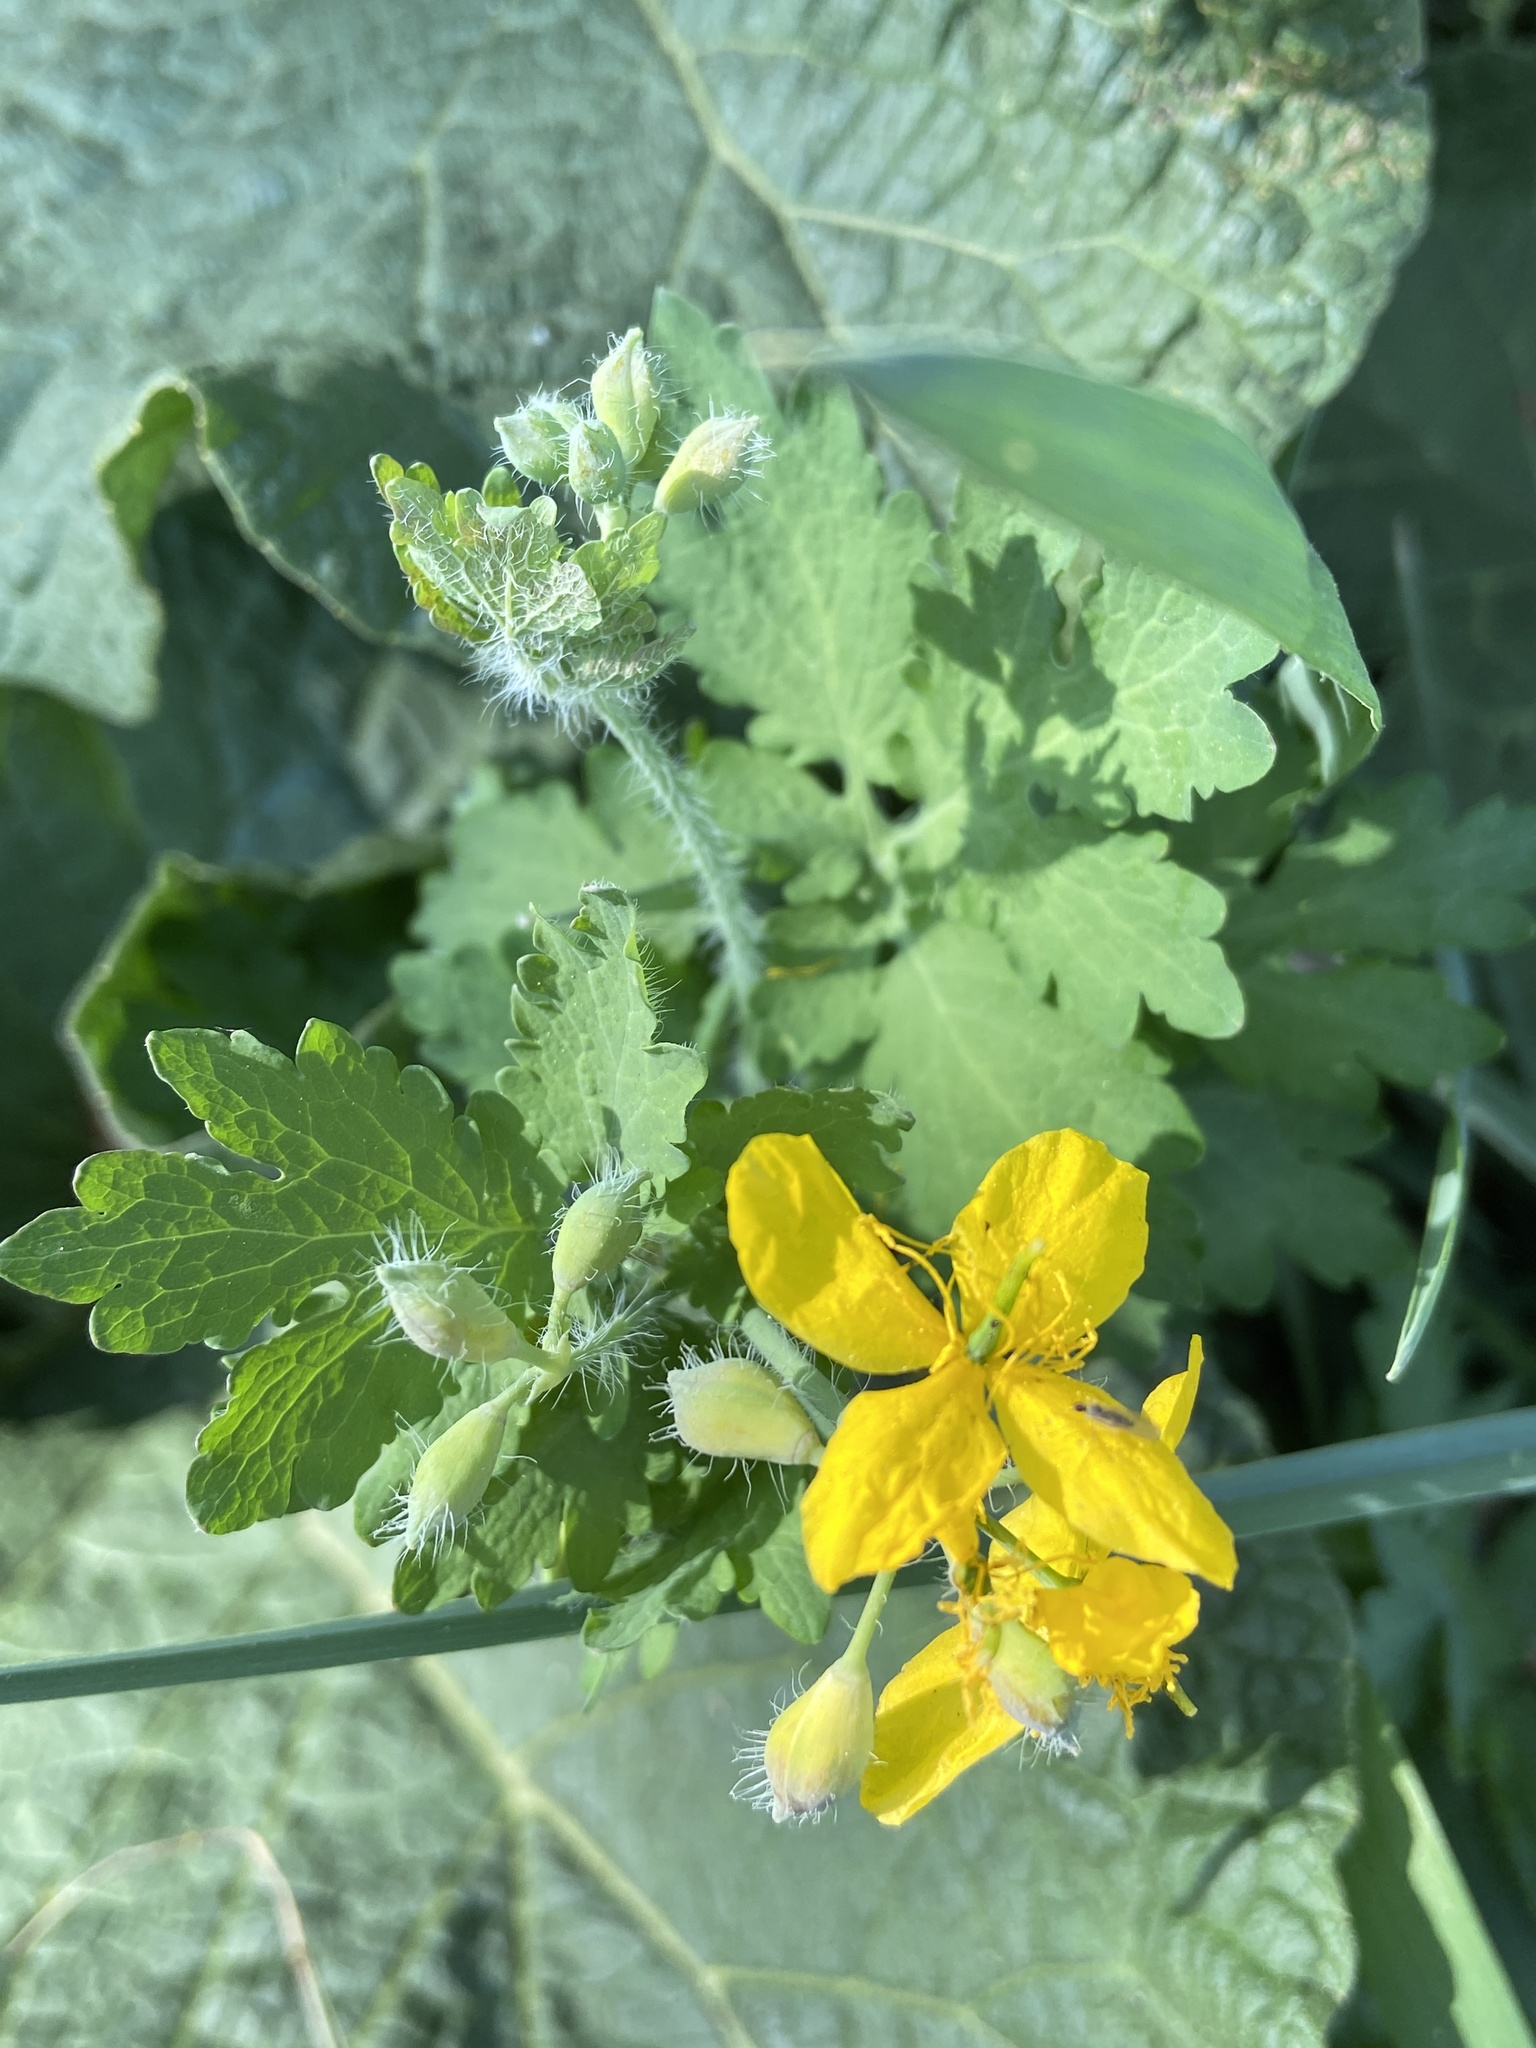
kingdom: Plantae
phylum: Tracheophyta
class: Magnoliopsida
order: Ranunculales
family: Papaveraceae
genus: Chelidonium
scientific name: Chelidonium majus
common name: Greater celandine
